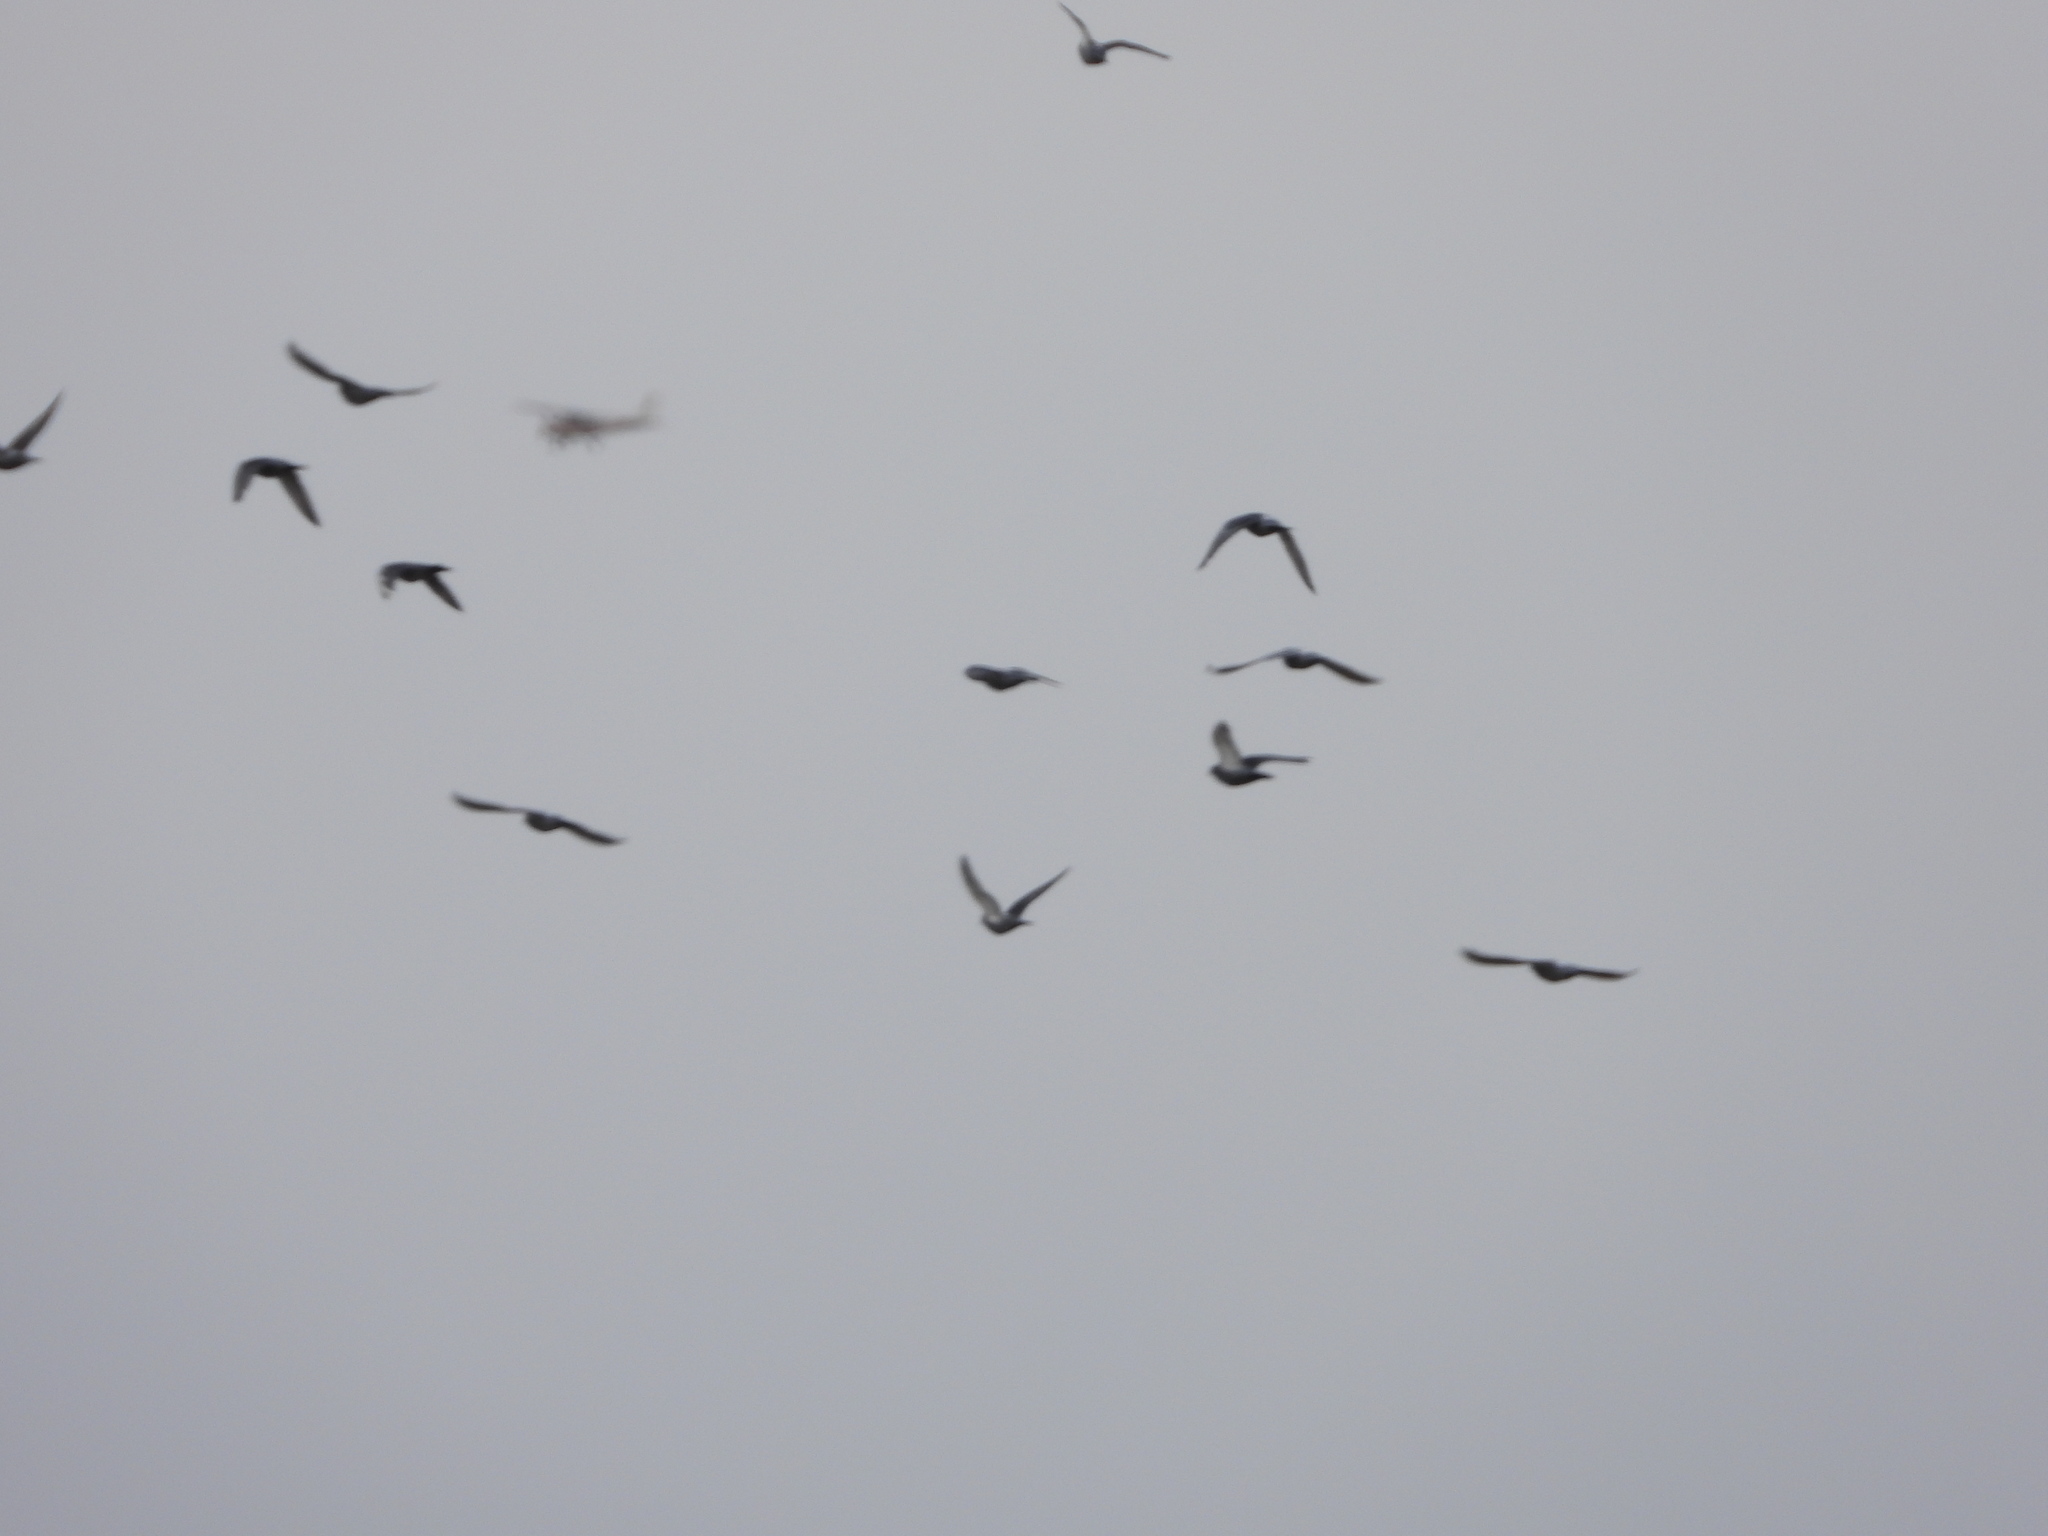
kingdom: Animalia
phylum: Chordata
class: Aves
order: Columbiformes
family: Columbidae
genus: Columba
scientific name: Columba livia
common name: Rock pigeon
